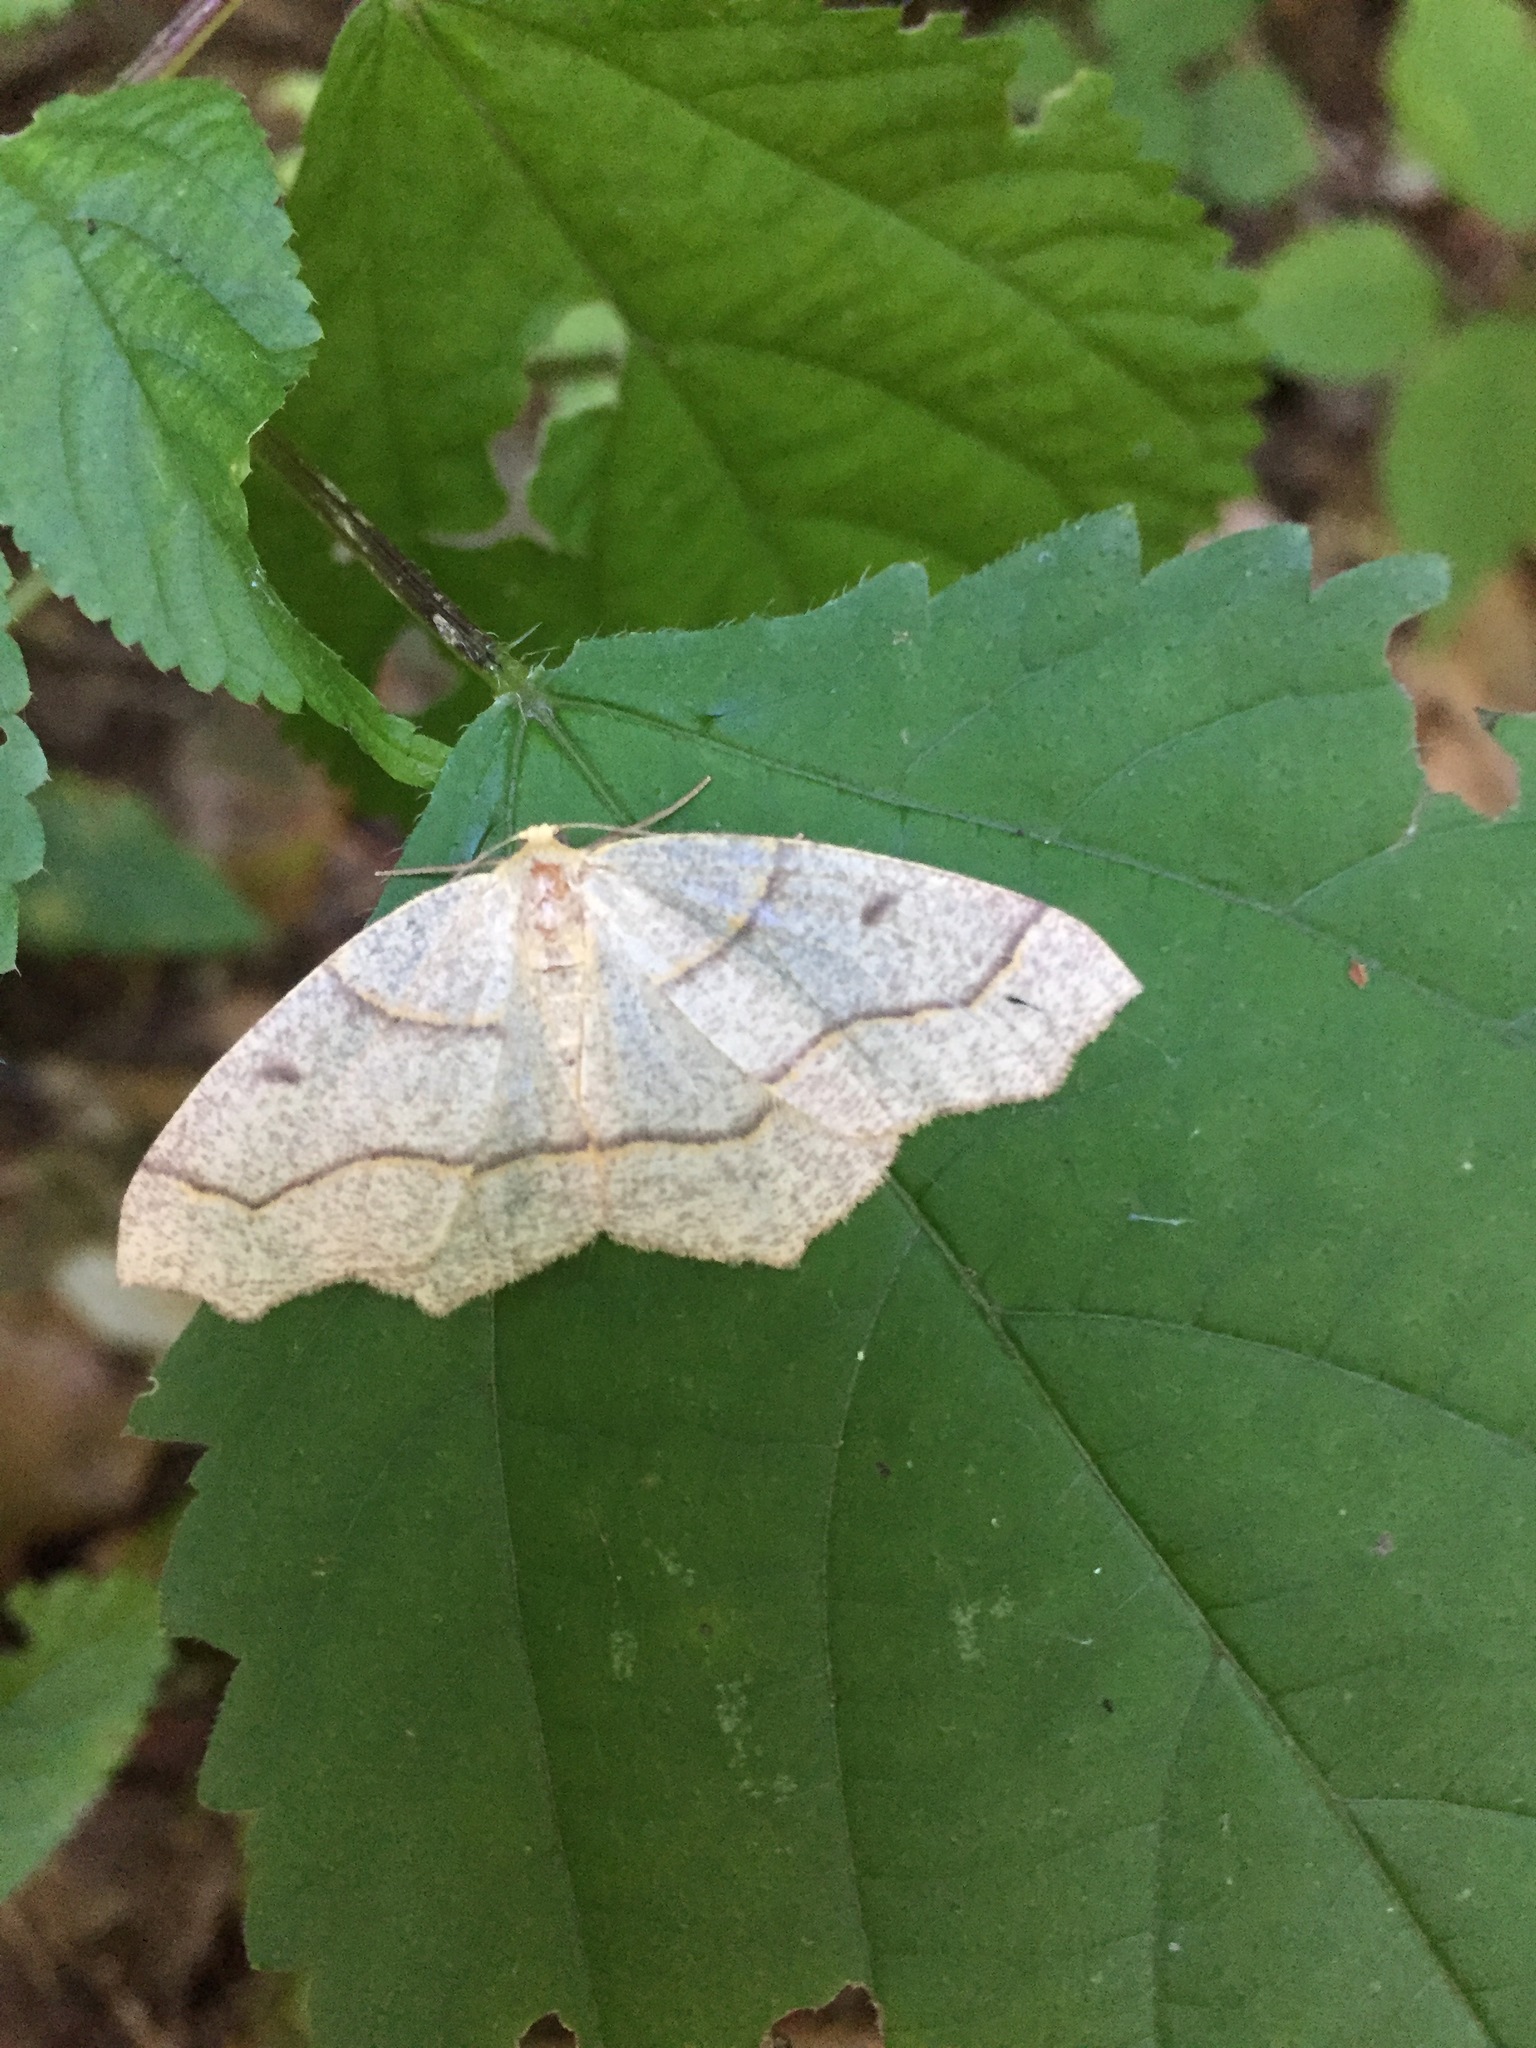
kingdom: Animalia
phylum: Arthropoda
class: Insecta
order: Lepidoptera
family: Geometridae
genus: Lambdina
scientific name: Lambdina fiscellaria
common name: Hemlock looper
